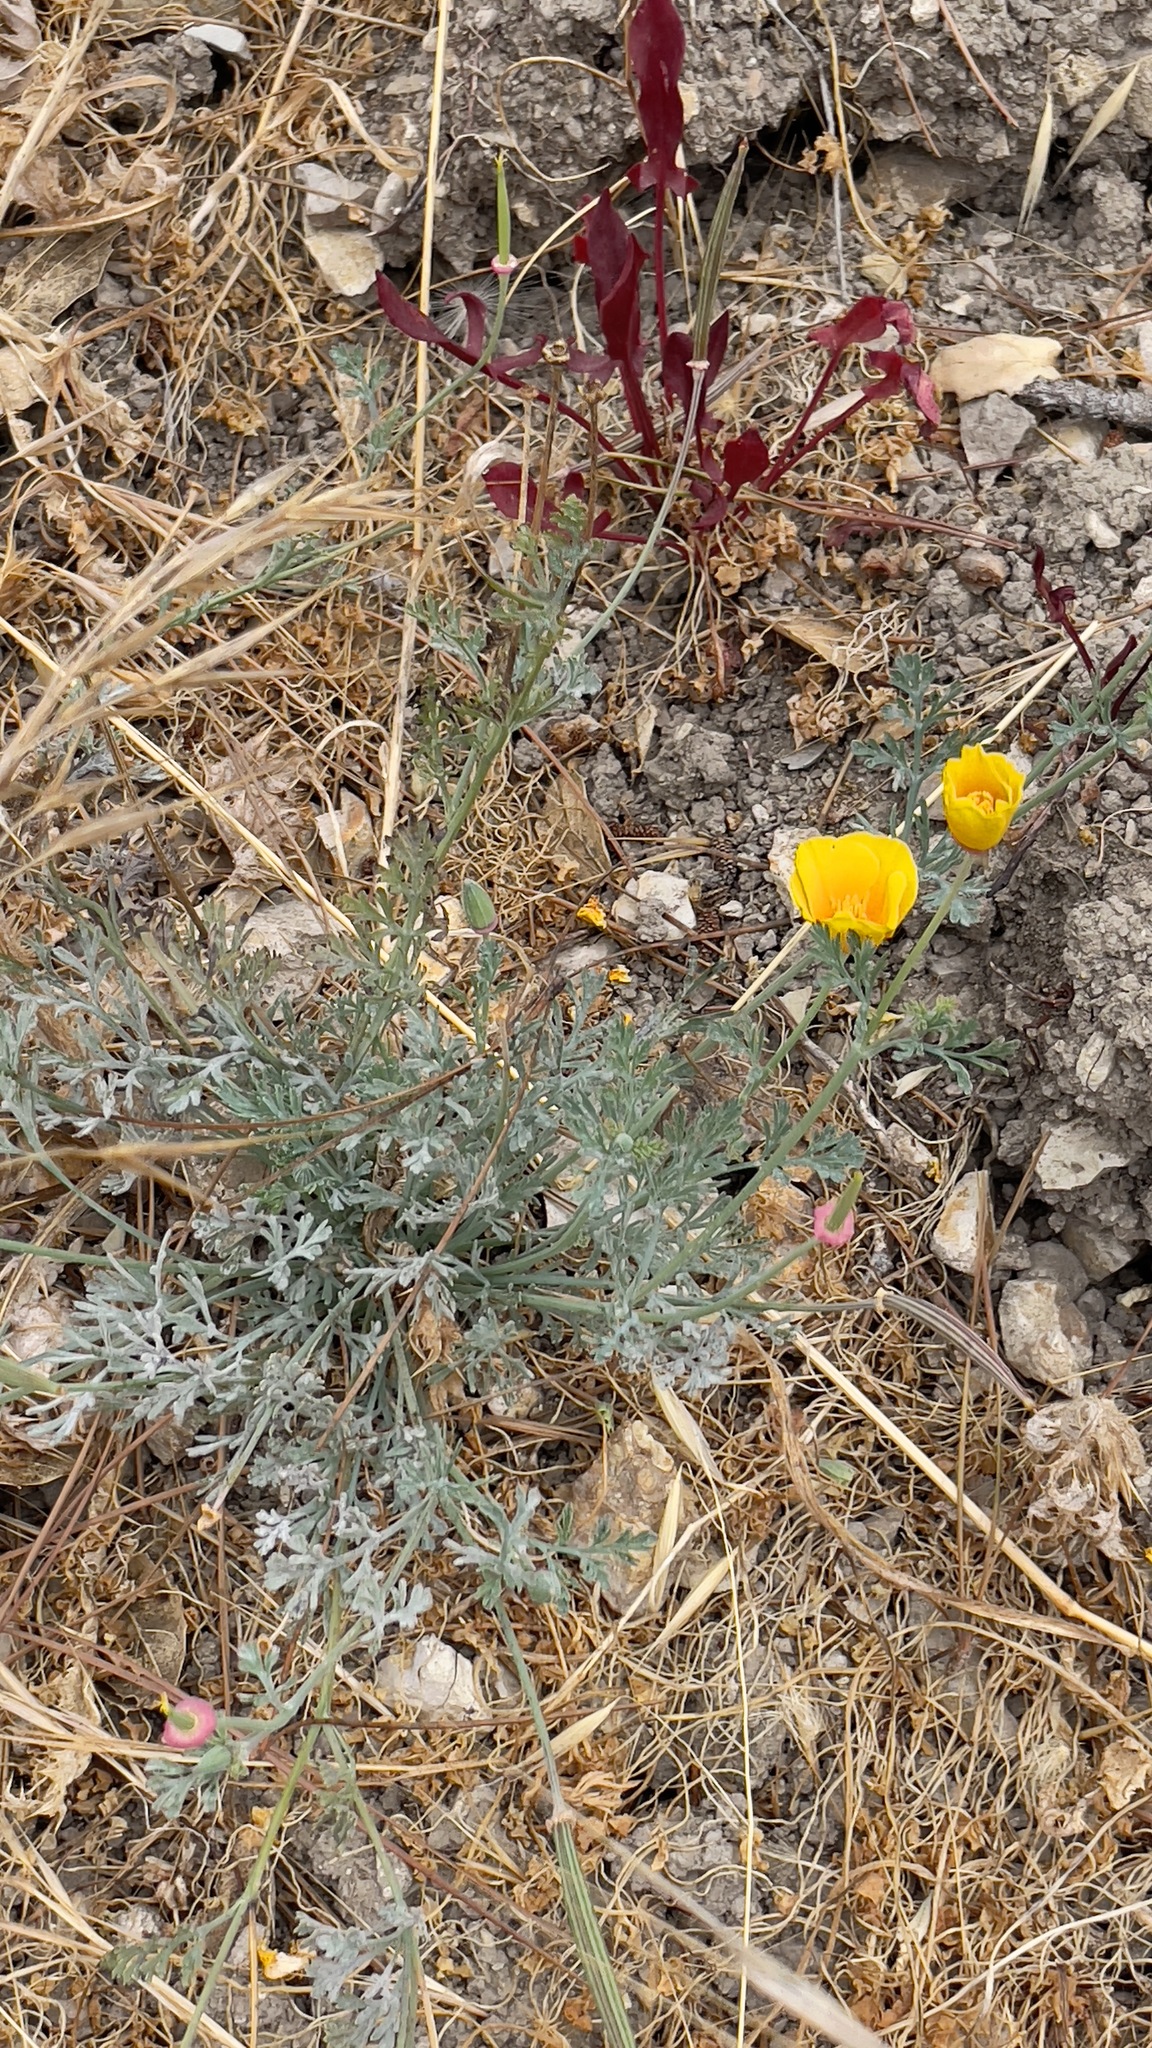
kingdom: Plantae
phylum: Tracheophyta
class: Magnoliopsida
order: Ranunculales
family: Papaveraceae
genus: Eschscholzia
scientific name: Eschscholzia californica
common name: California poppy
